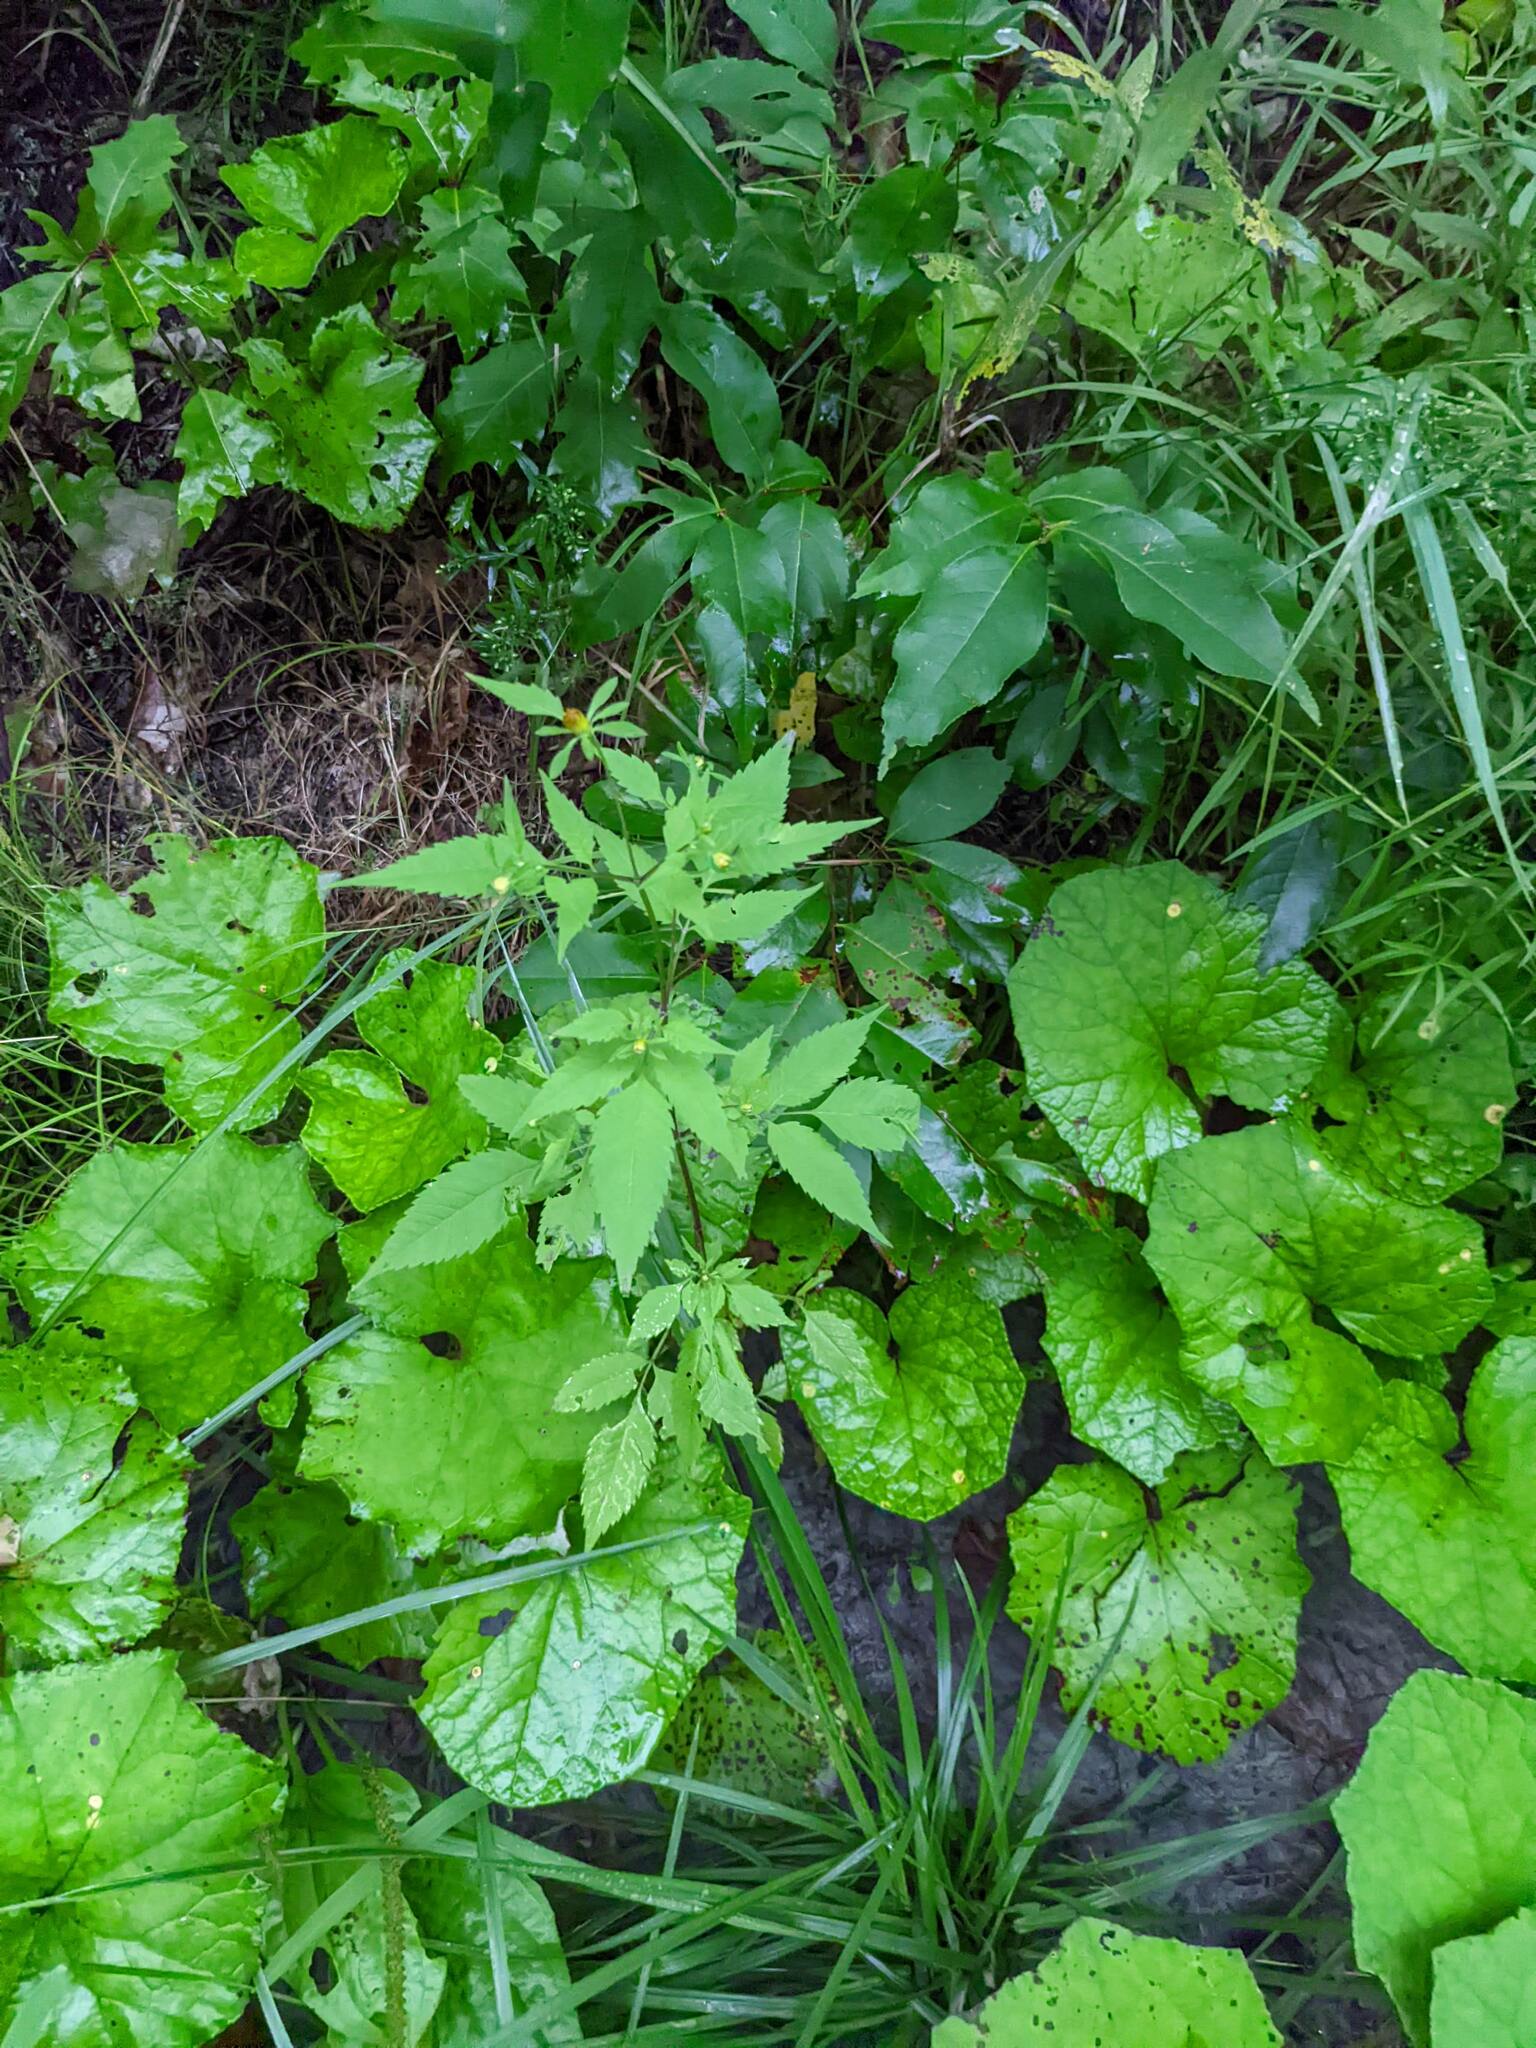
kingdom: Plantae
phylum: Tracheophyta
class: Magnoliopsida
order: Asterales
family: Asteraceae
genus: Tussilago
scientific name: Tussilago farfara
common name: Coltsfoot
